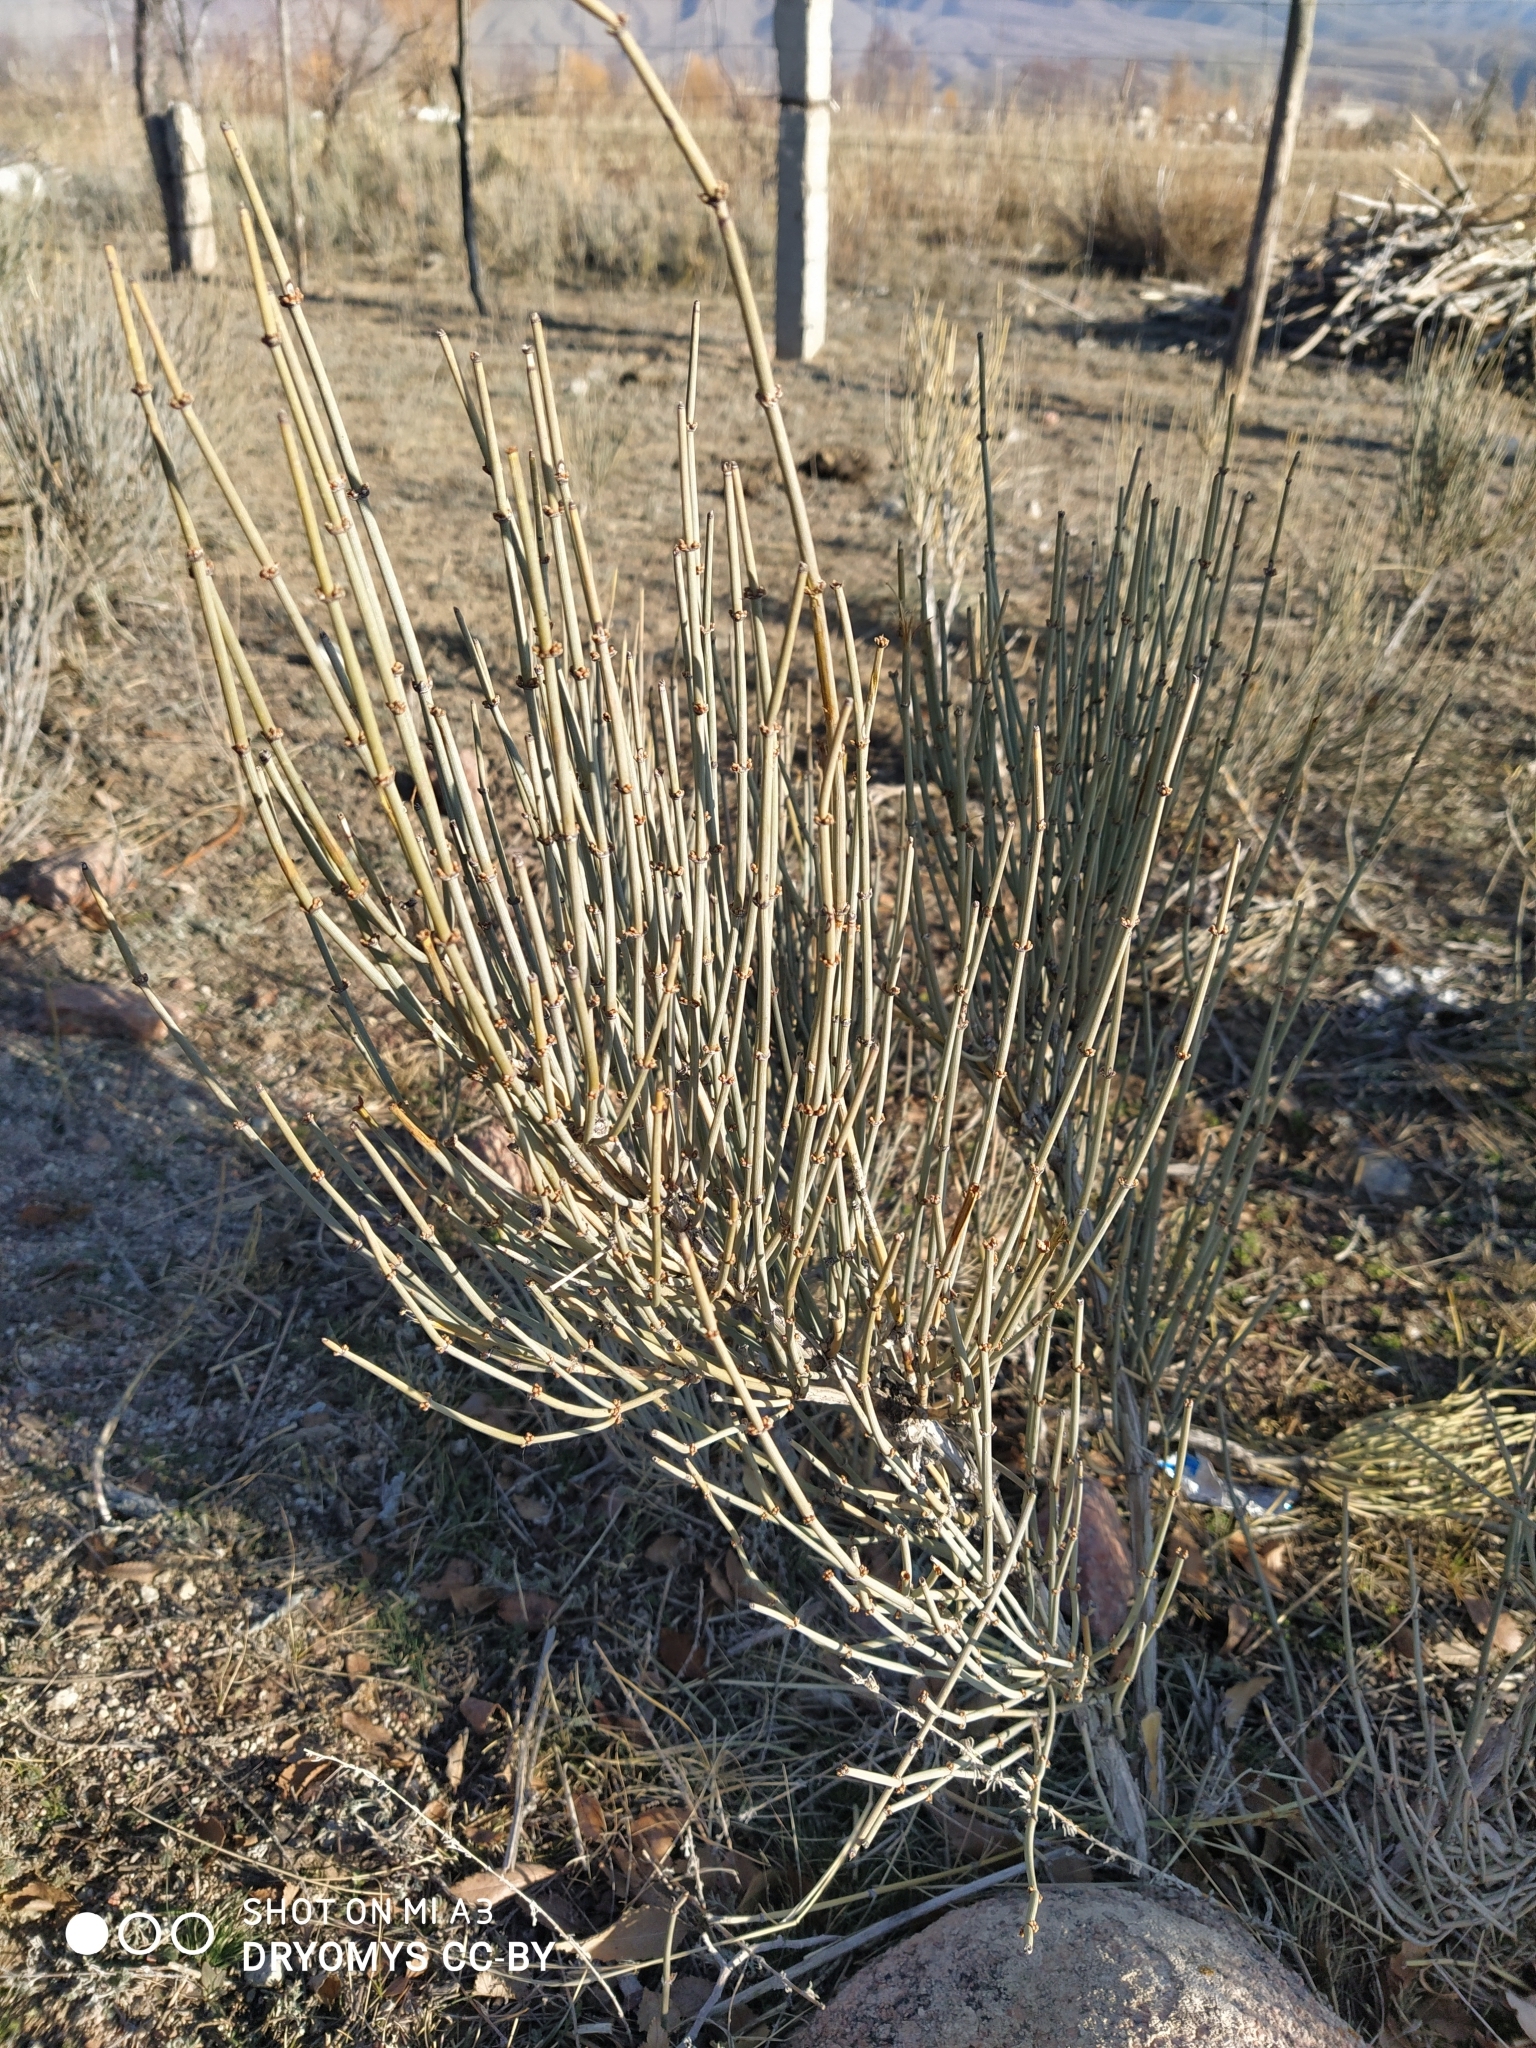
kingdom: Plantae
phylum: Tracheophyta
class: Gnetopsida
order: Ephedrales
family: Ephedraceae
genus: Ephedra
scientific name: Ephedra intermedia
